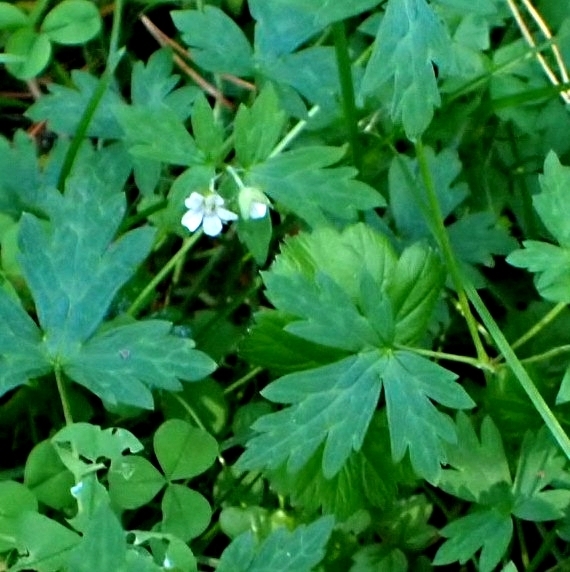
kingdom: Plantae
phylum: Tracheophyta
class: Magnoliopsida
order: Geraniales
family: Geraniaceae
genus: Geranium
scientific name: Geranium sibiricum
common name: Siberian crane's-bill
